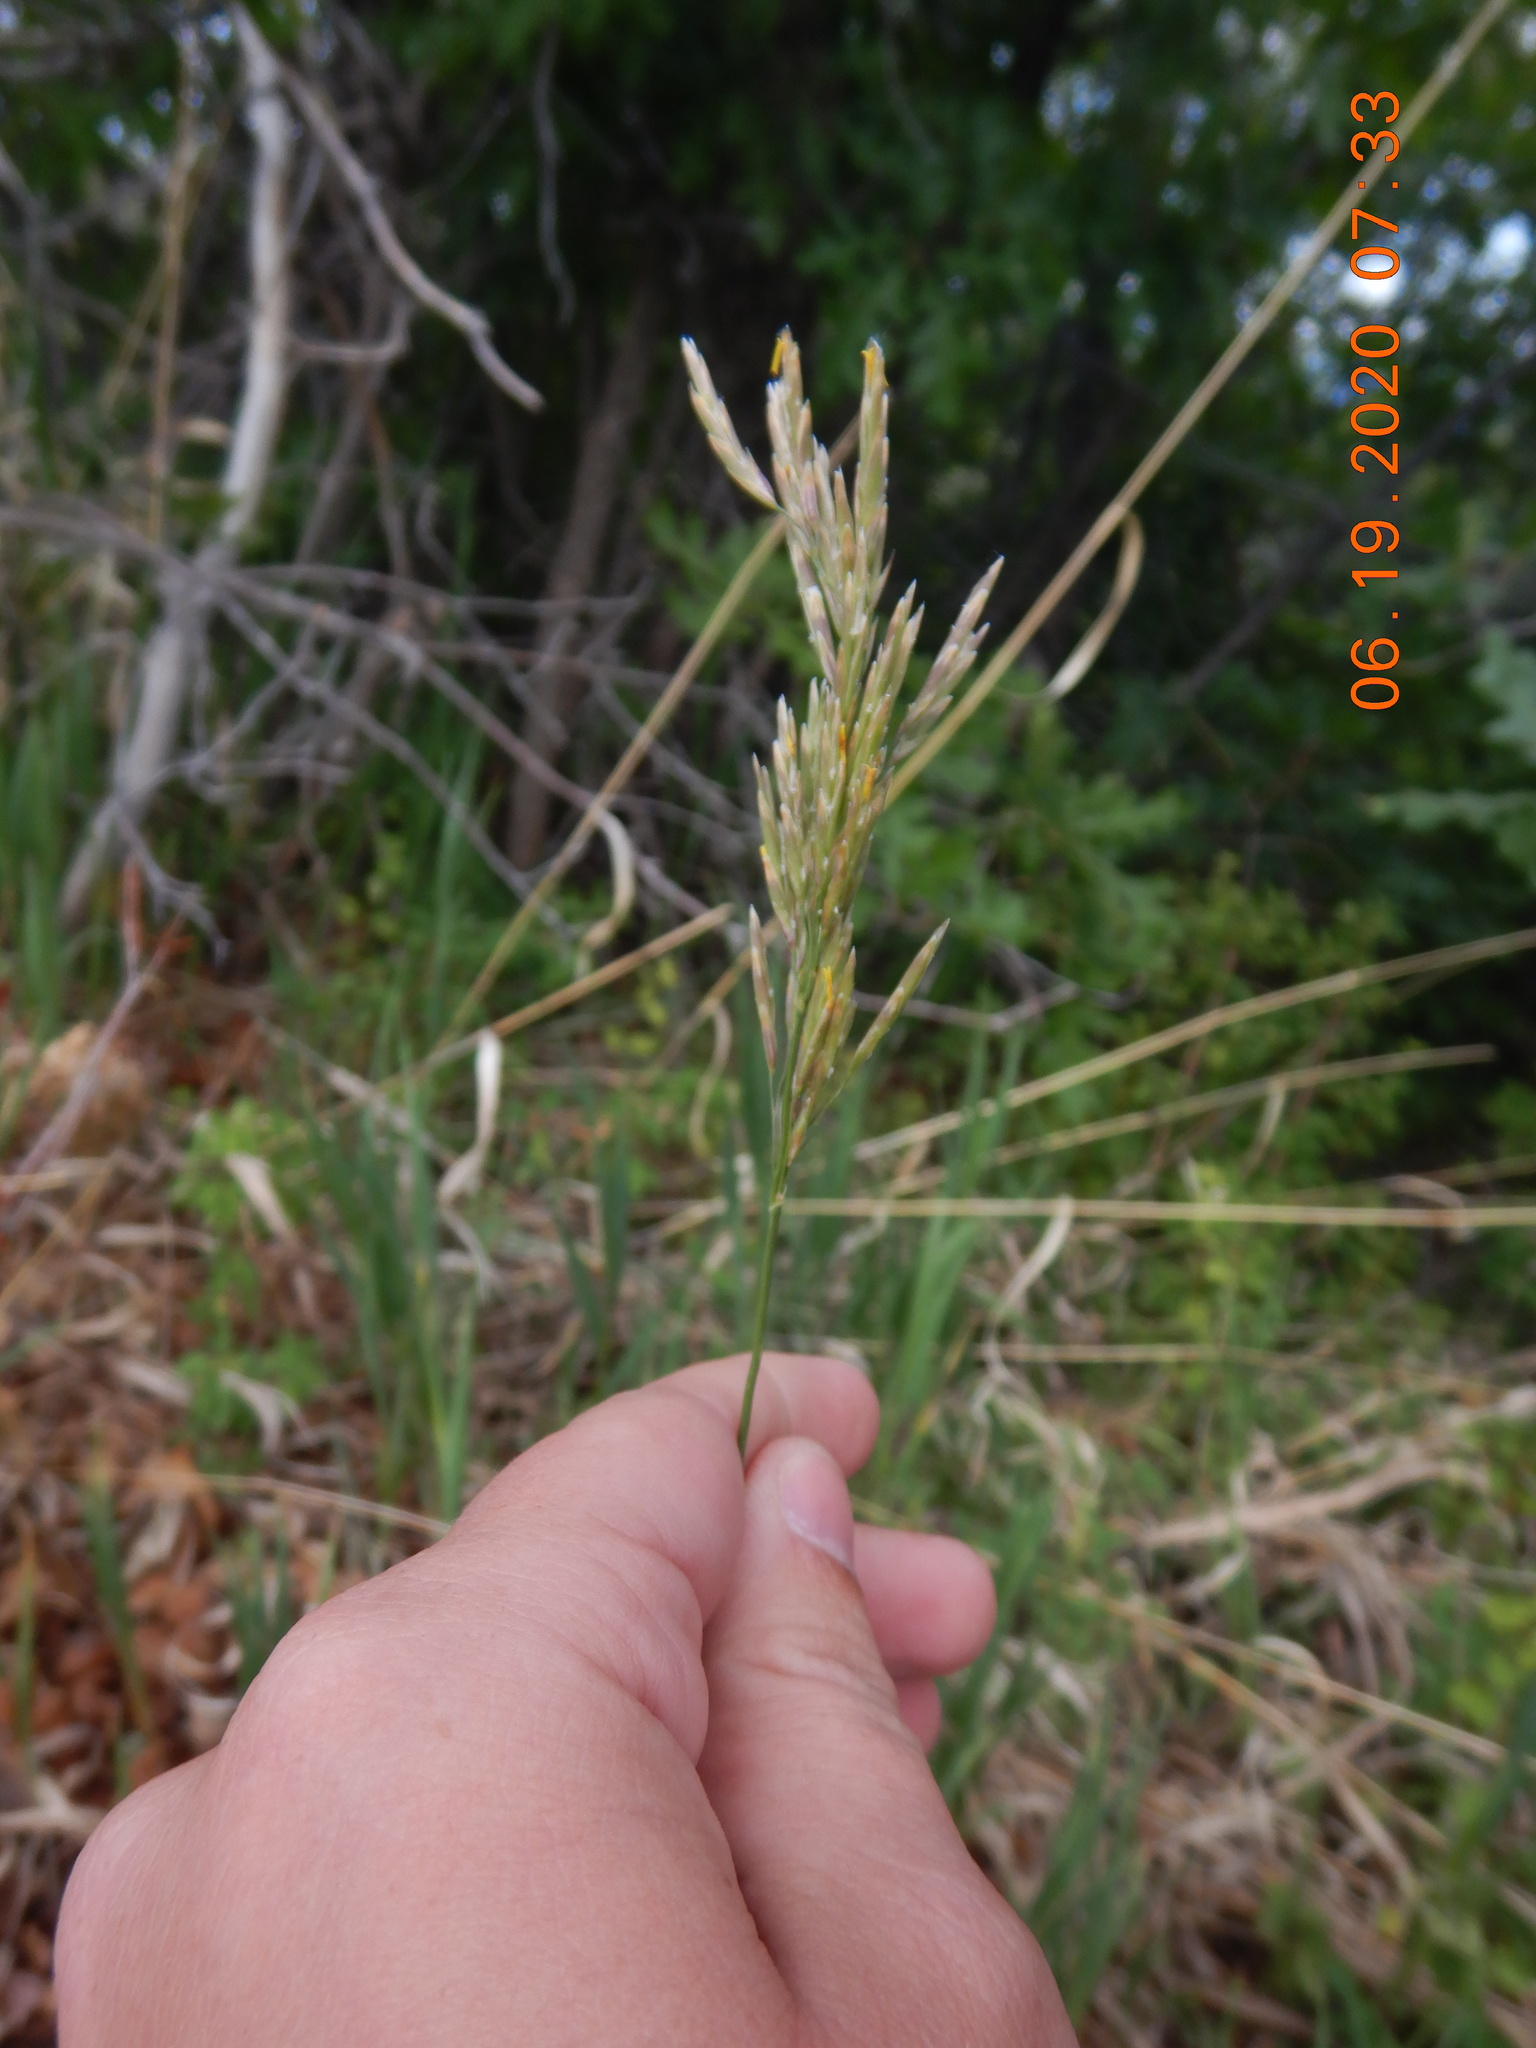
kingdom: Plantae
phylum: Tracheophyta
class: Liliopsida
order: Poales
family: Poaceae
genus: Bromus
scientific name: Bromus inermis
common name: Smooth brome
